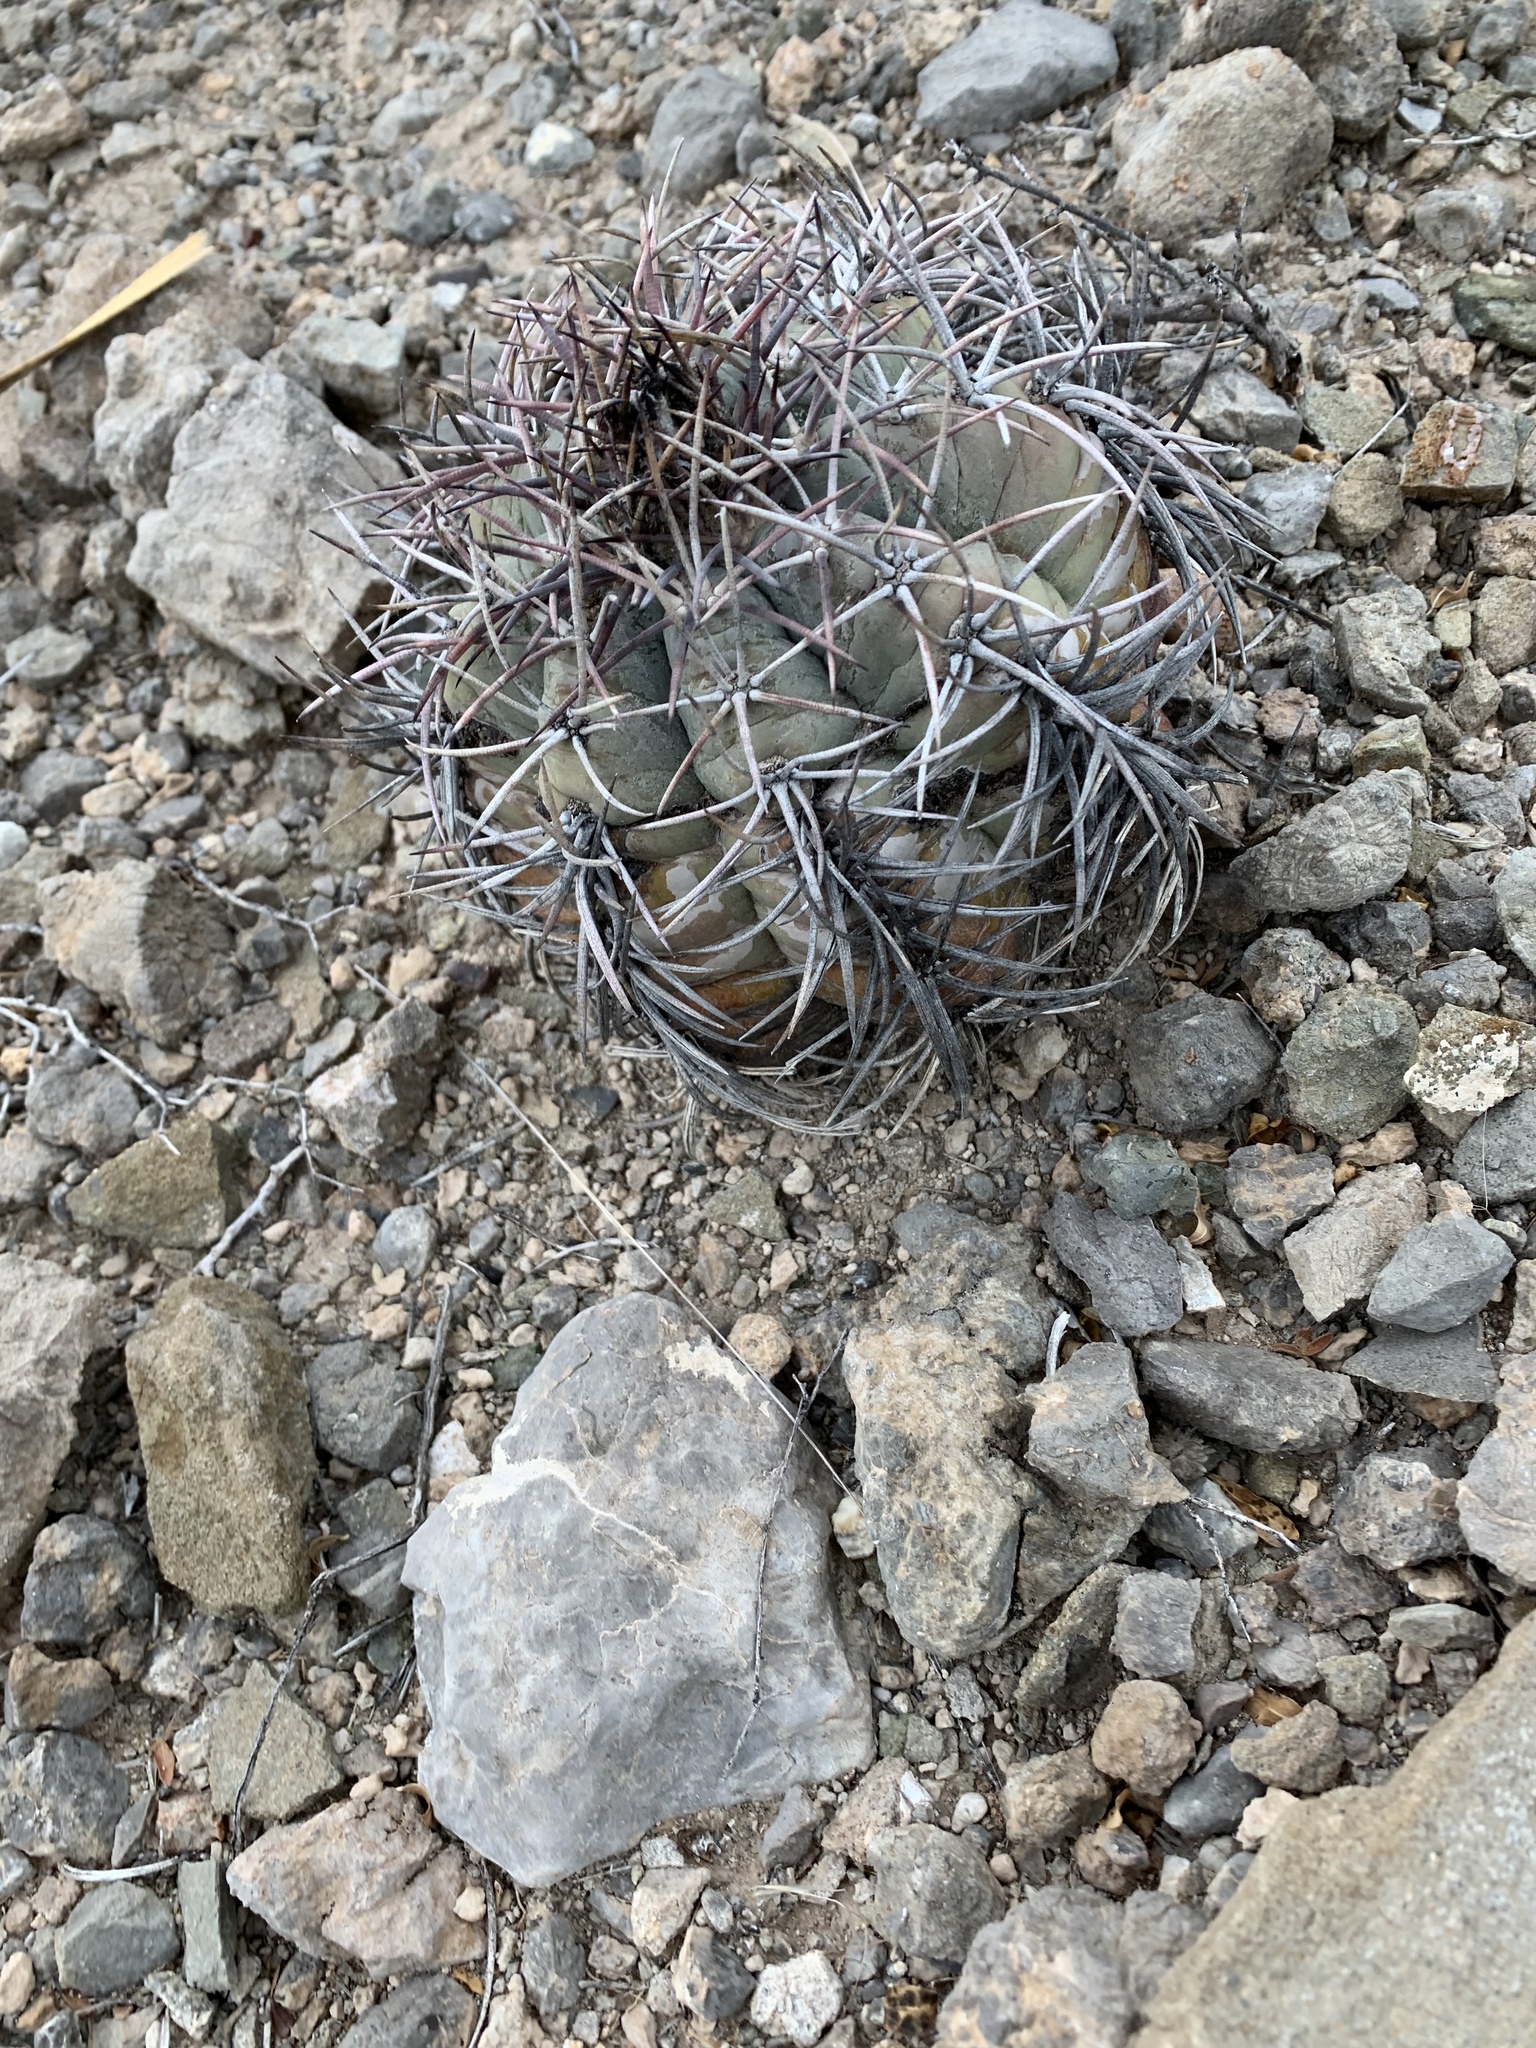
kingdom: Plantae
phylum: Tracheophyta
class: Magnoliopsida
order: Caryophyllales
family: Cactaceae
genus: Echinocactus
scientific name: Echinocactus horizonthalonius
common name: Devilshead
